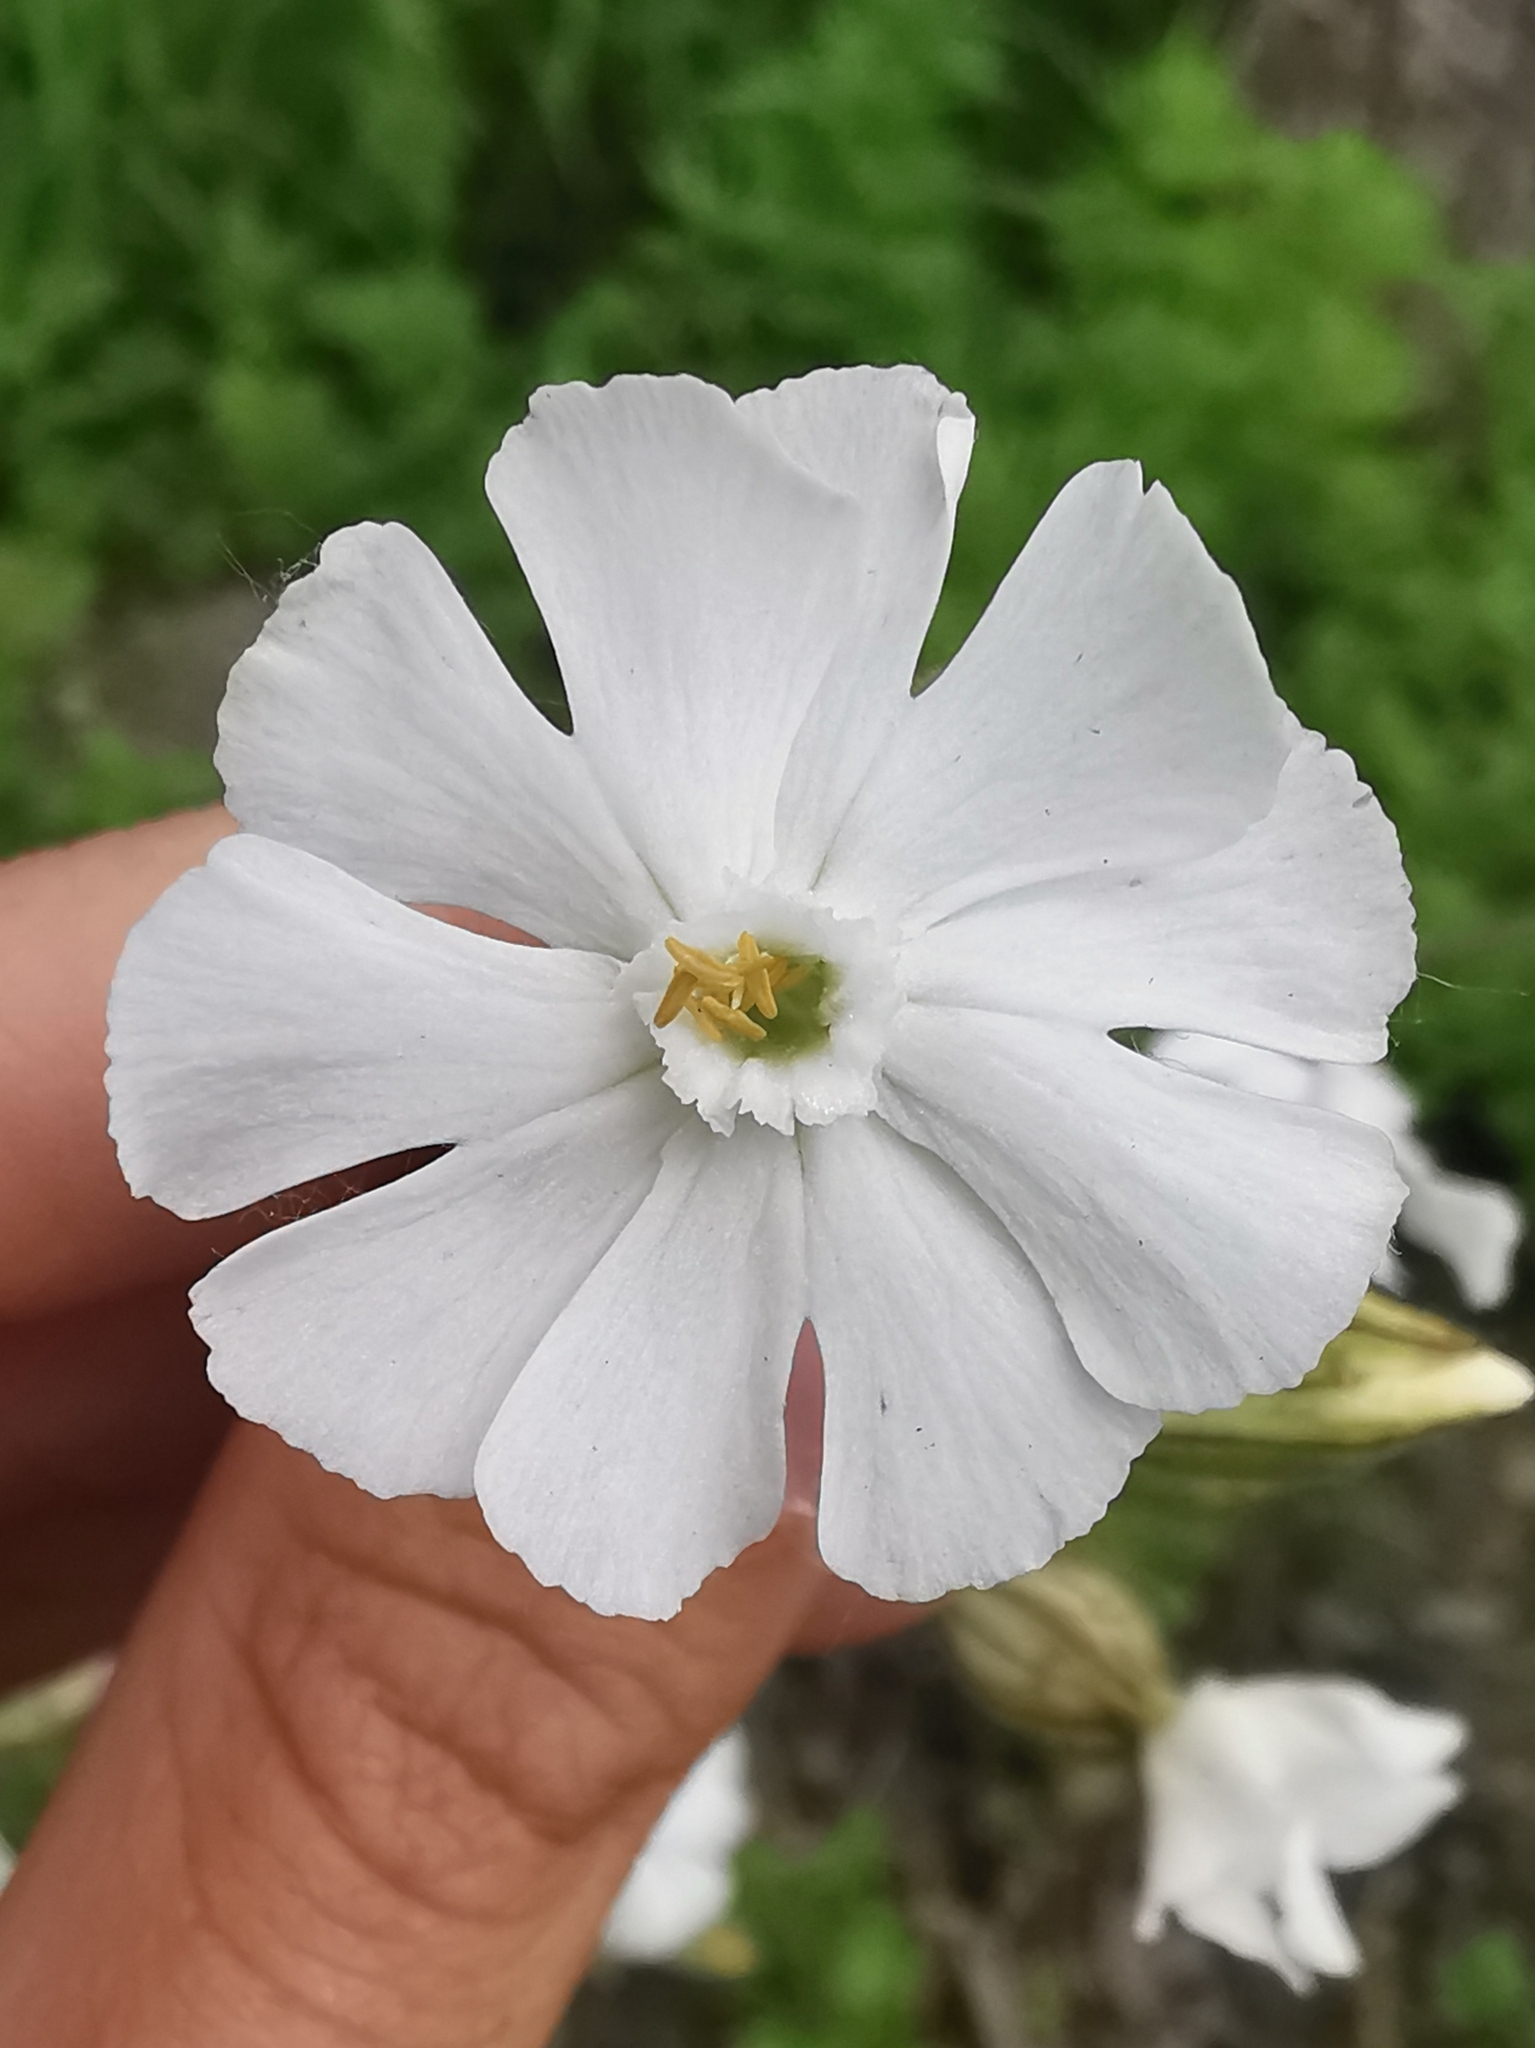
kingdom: Plantae
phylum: Tracheophyta
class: Magnoliopsida
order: Caryophyllales
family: Caryophyllaceae
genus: Silene
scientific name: Silene latifolia
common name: White campion
